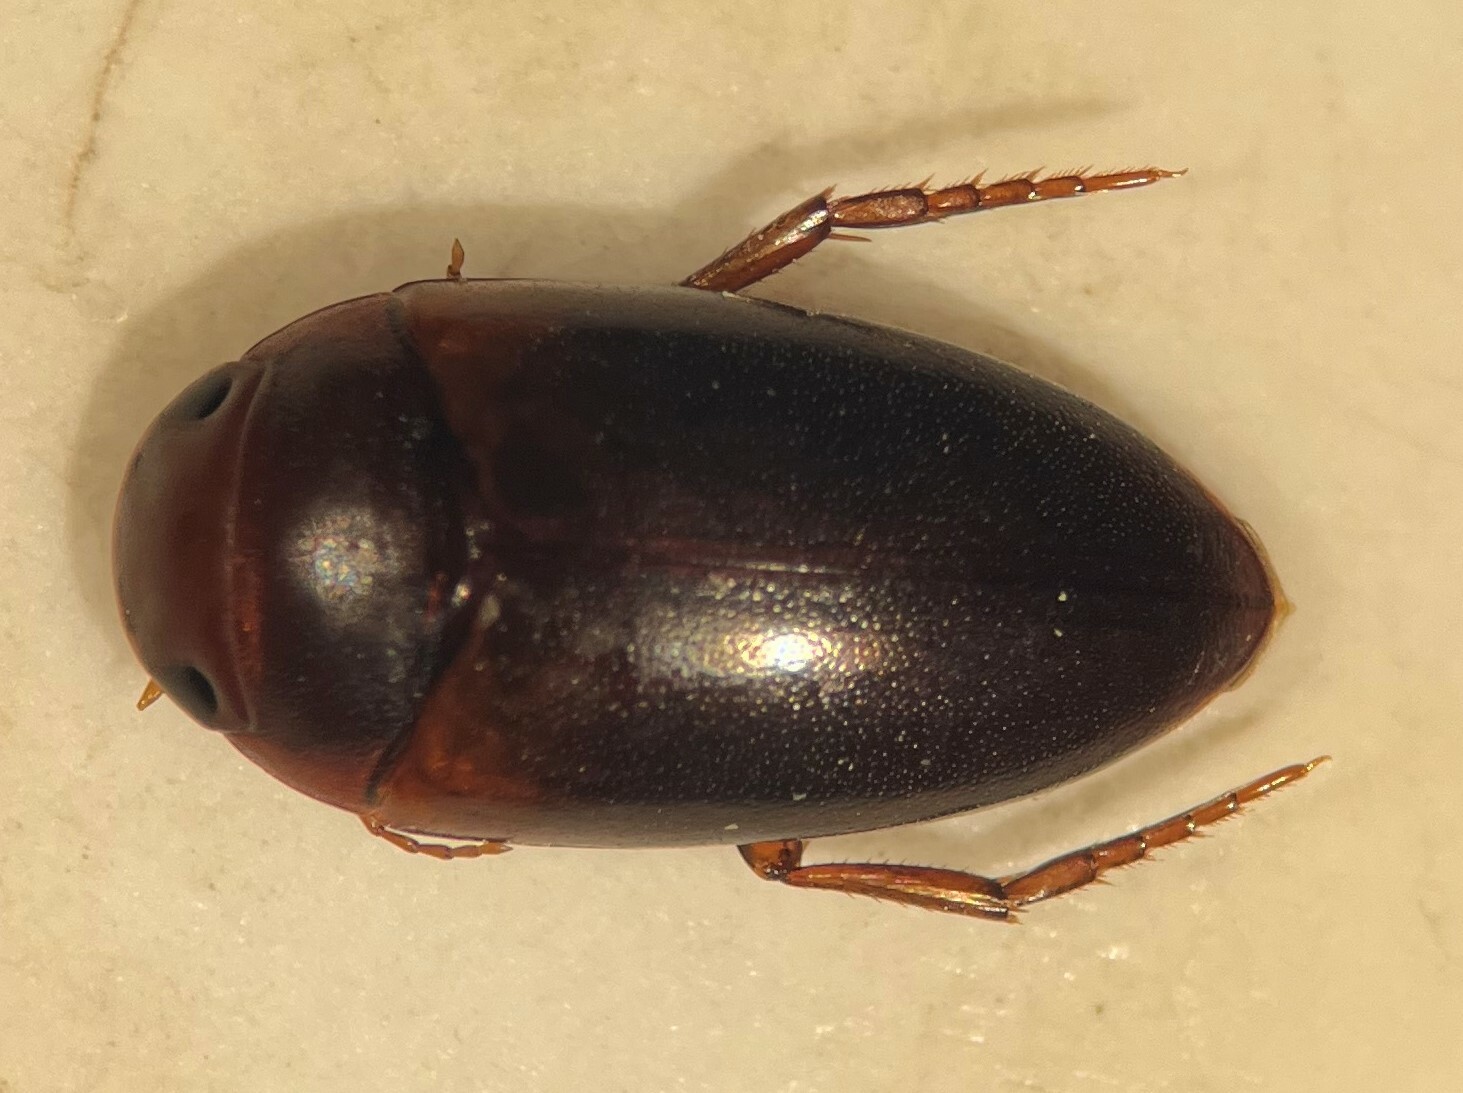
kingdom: Animalia
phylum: Arthropoda
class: Insecta
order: Coleoptera
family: Dytiscidae
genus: Laccornis
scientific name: Laccornis difformis
